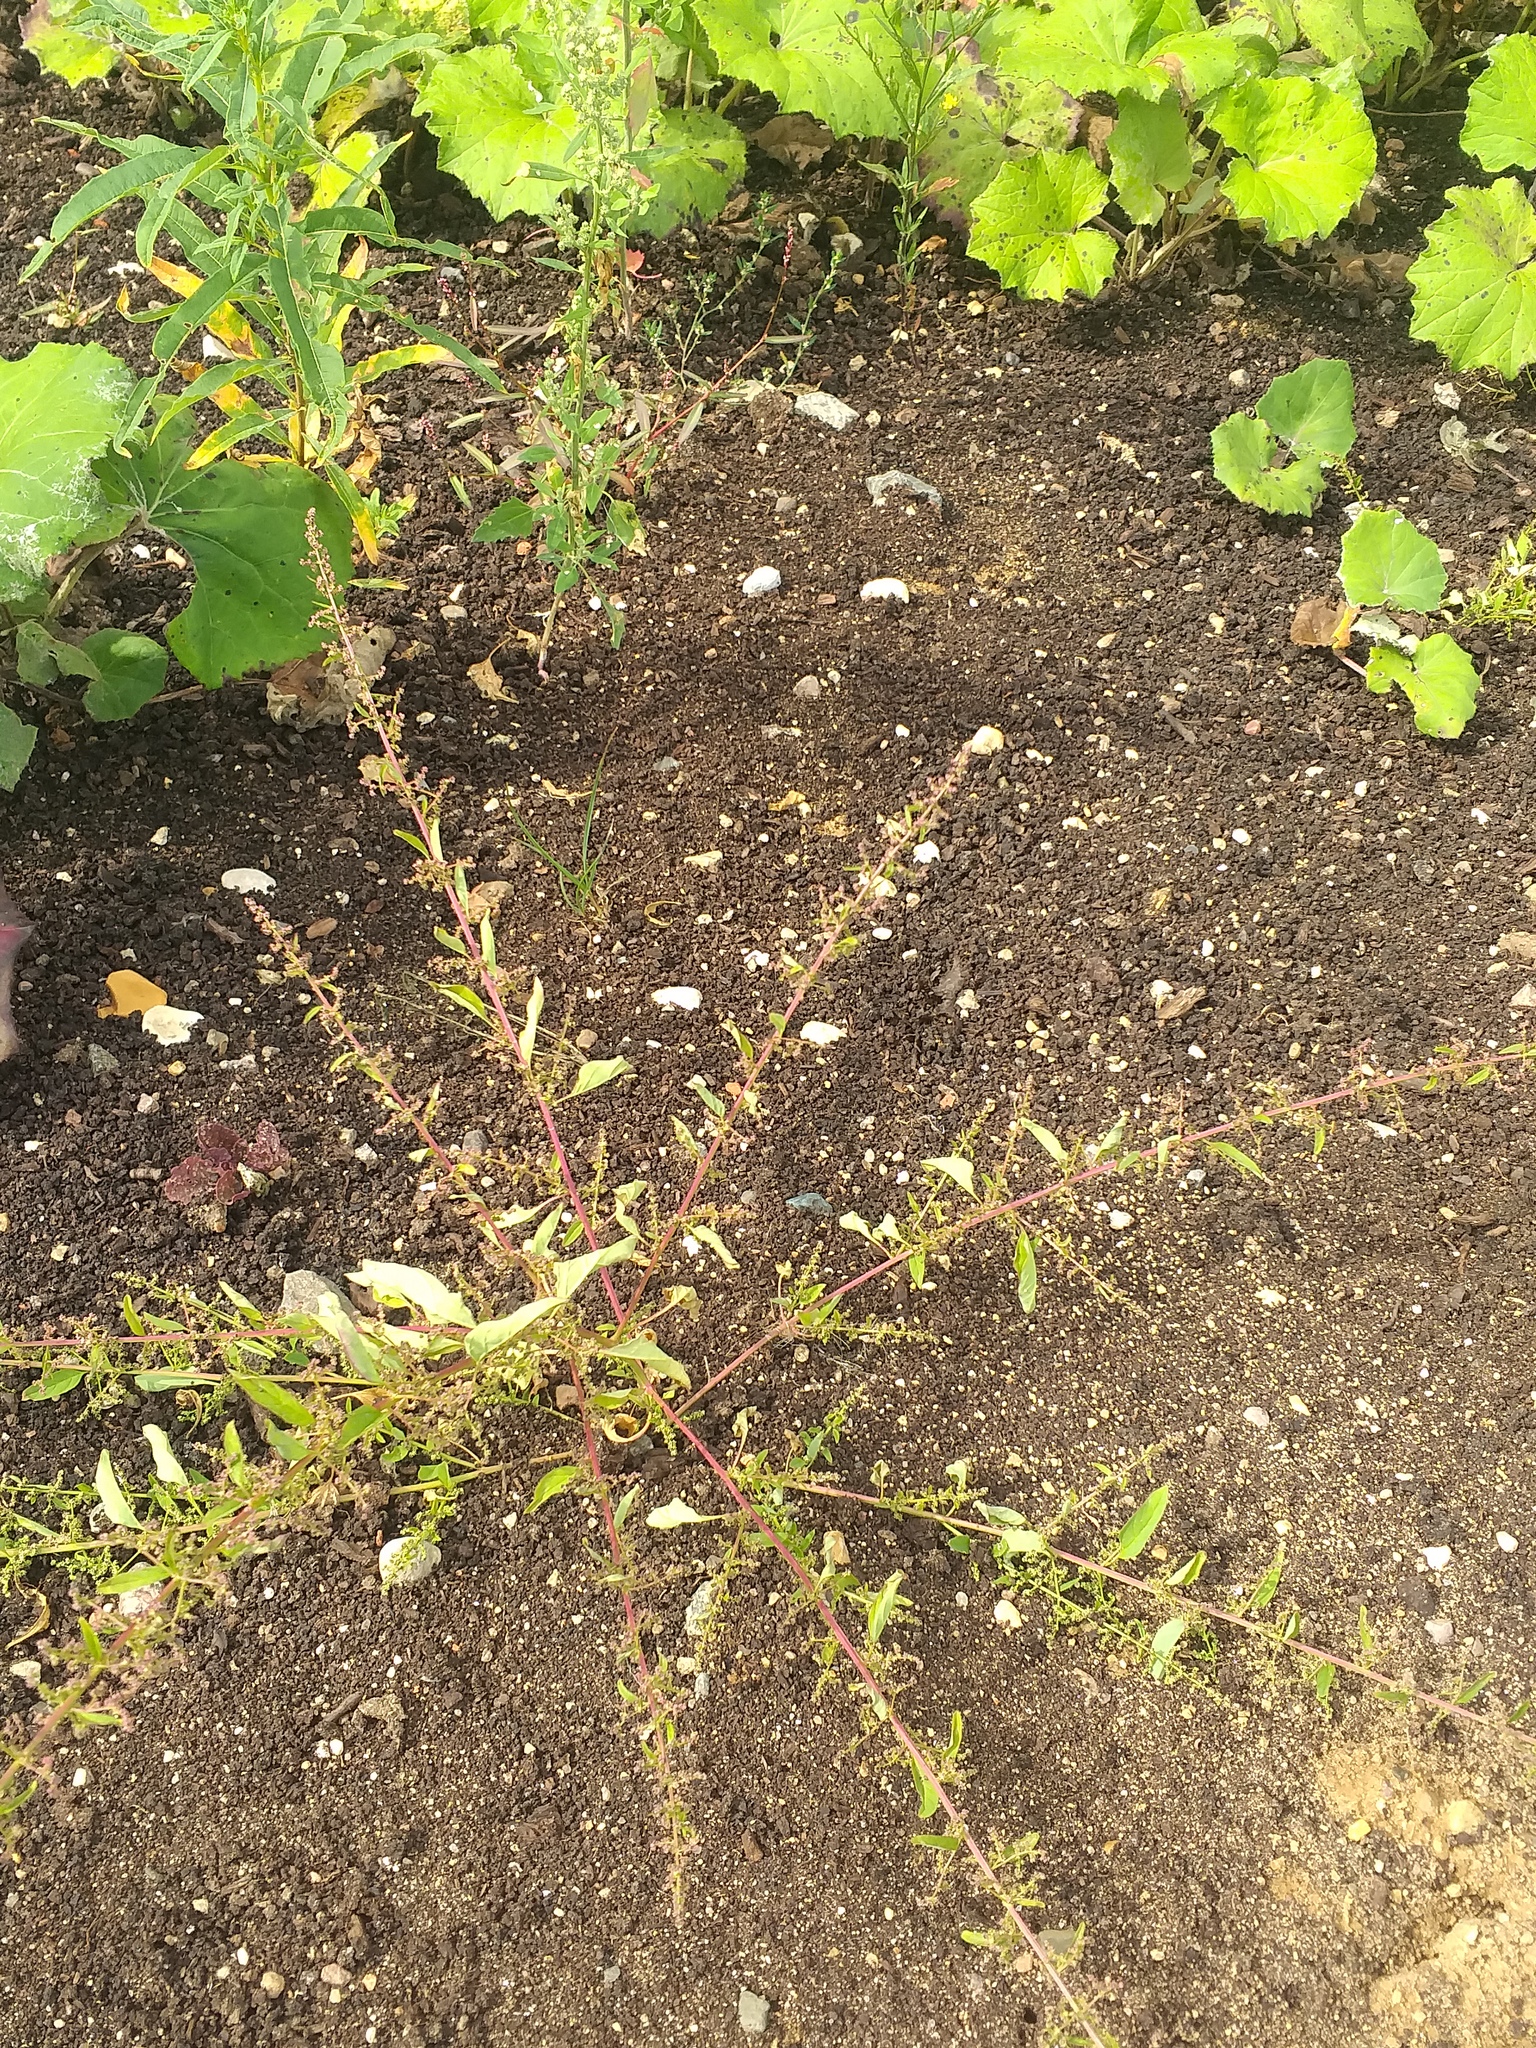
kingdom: Plantae
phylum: Tracheophyta
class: Magnoliopsida
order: Caryophyllales
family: Amaranthaceae
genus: Lipandra
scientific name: Lipandra polysperma
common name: Many-seed goosefoot
